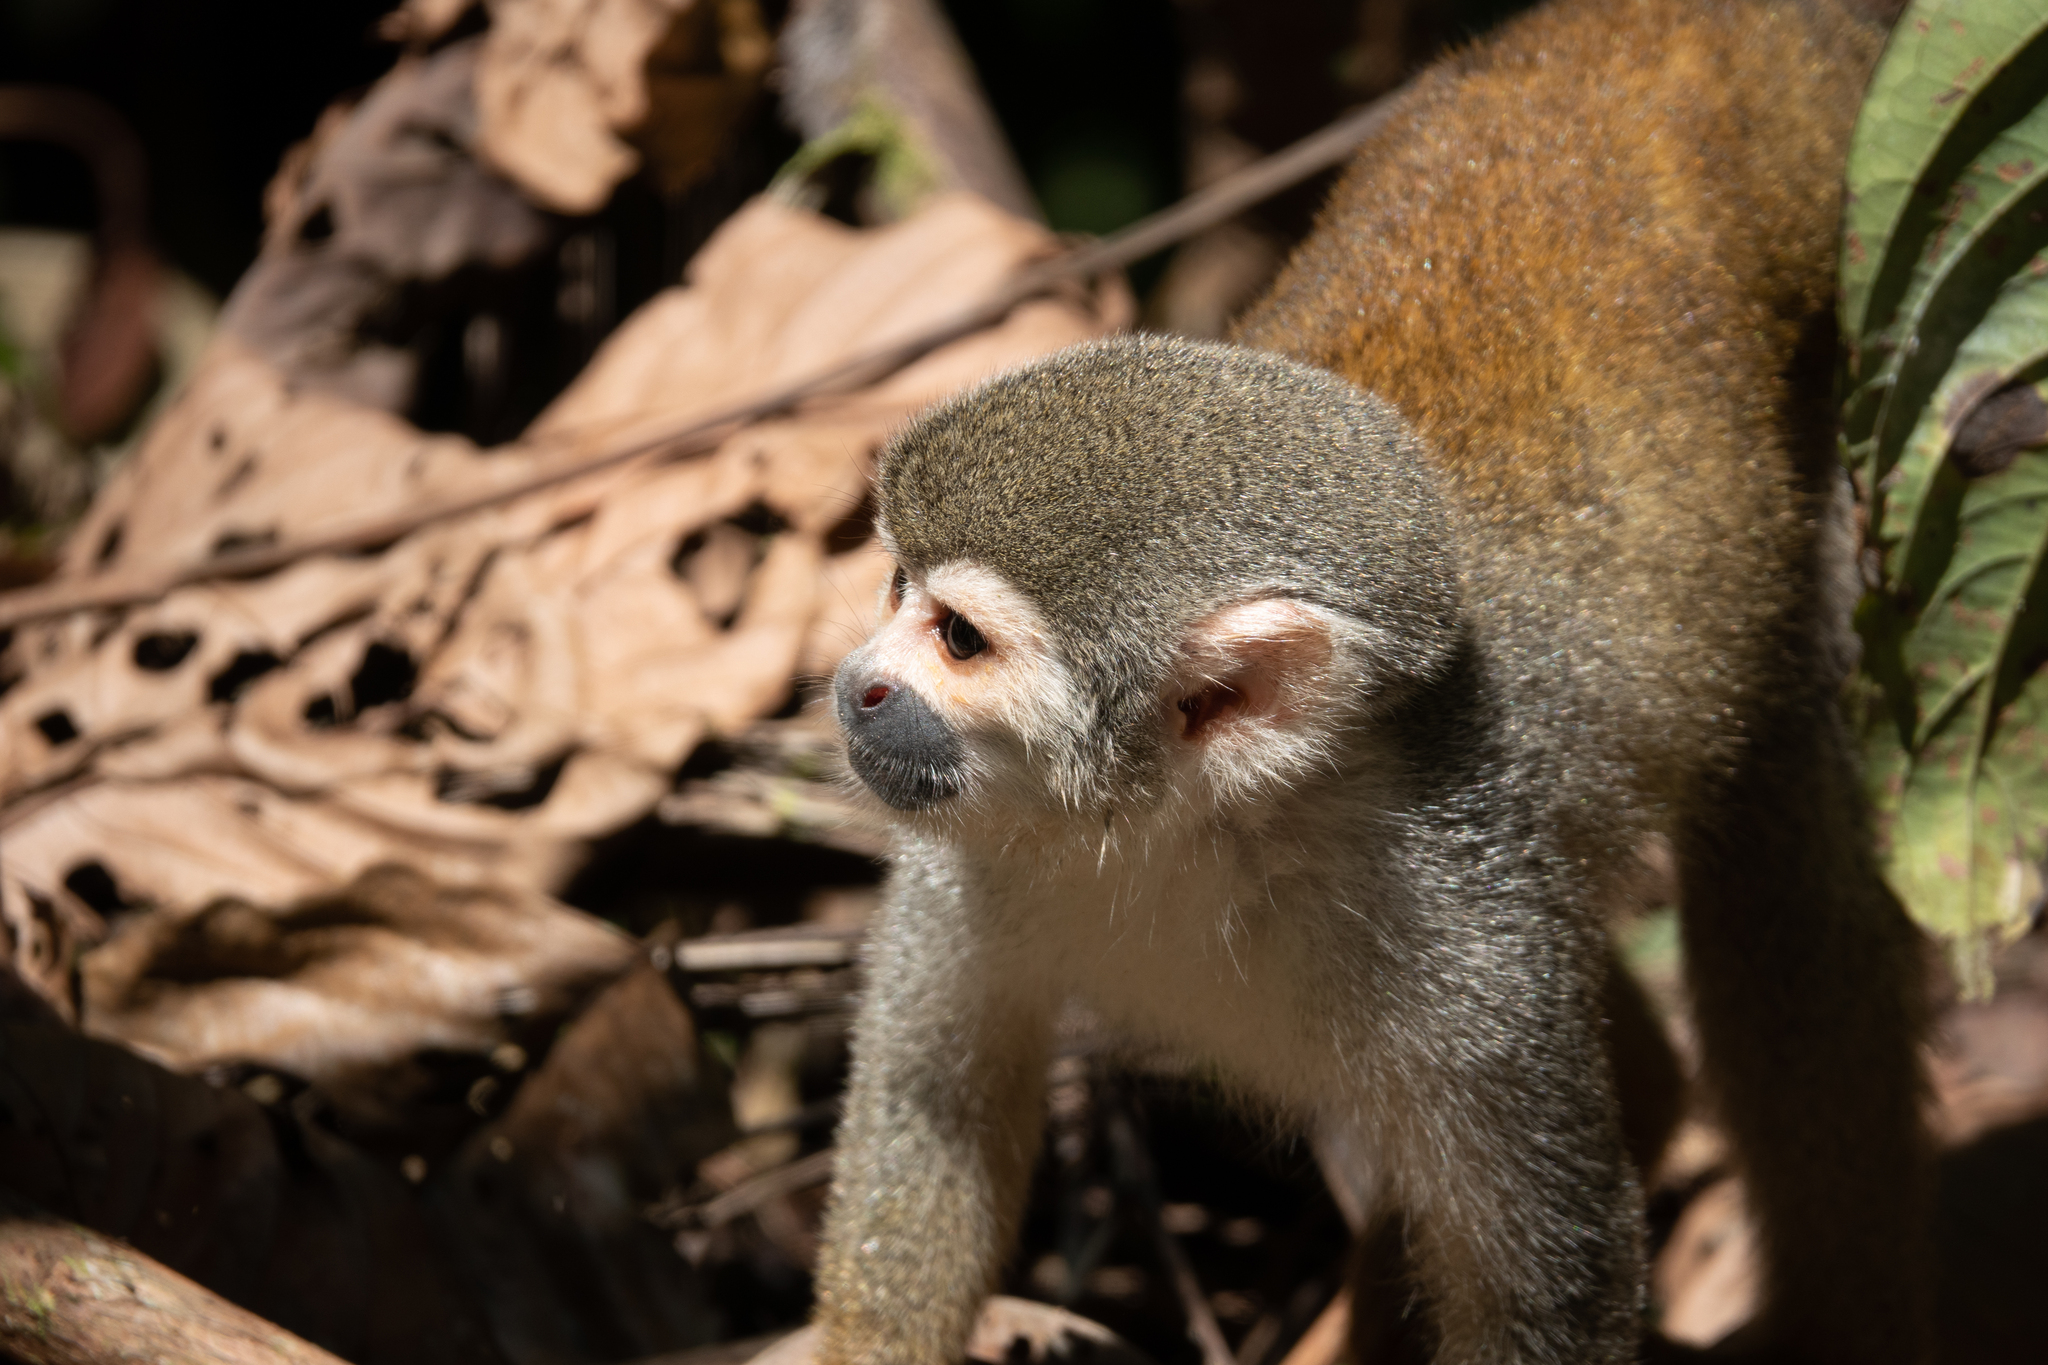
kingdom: Animalia
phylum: Chordata
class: Mammalia
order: Primates
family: Cebidae
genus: Saimiri
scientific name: Saimiri cassiquiarensis
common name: Humboldt’s squirrel monkey
